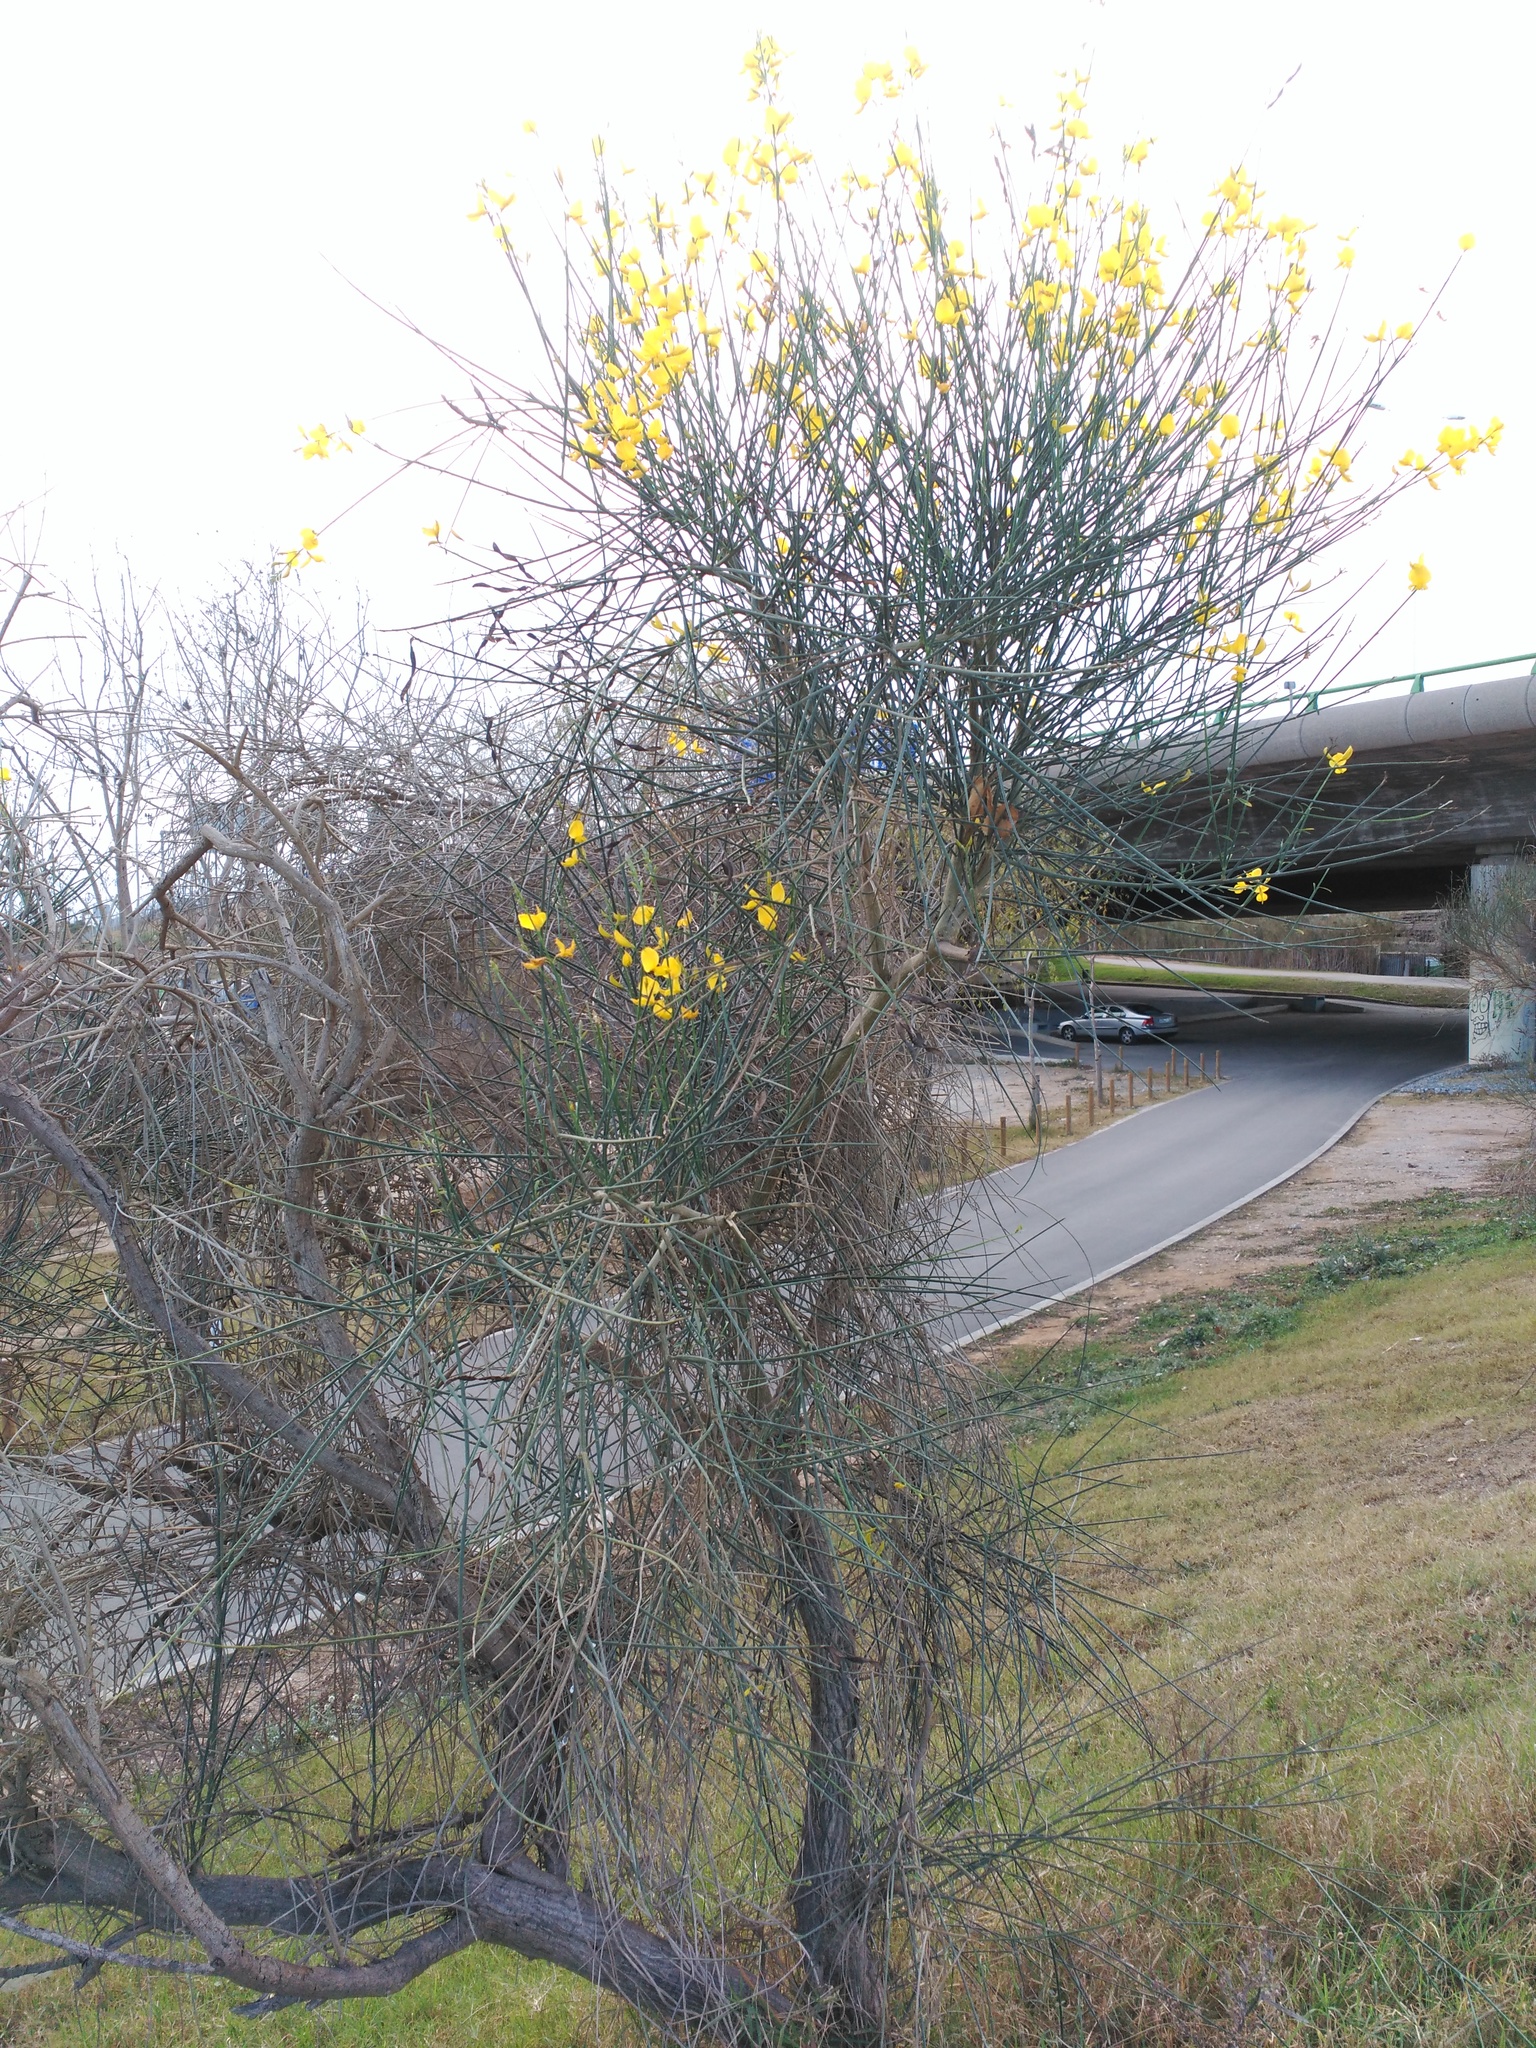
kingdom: Plantae
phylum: Tracheophyta
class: Magnoliopsida
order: Fabales
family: Fabaceae
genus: Spartium
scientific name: Spartium junceum
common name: Spanish broom
